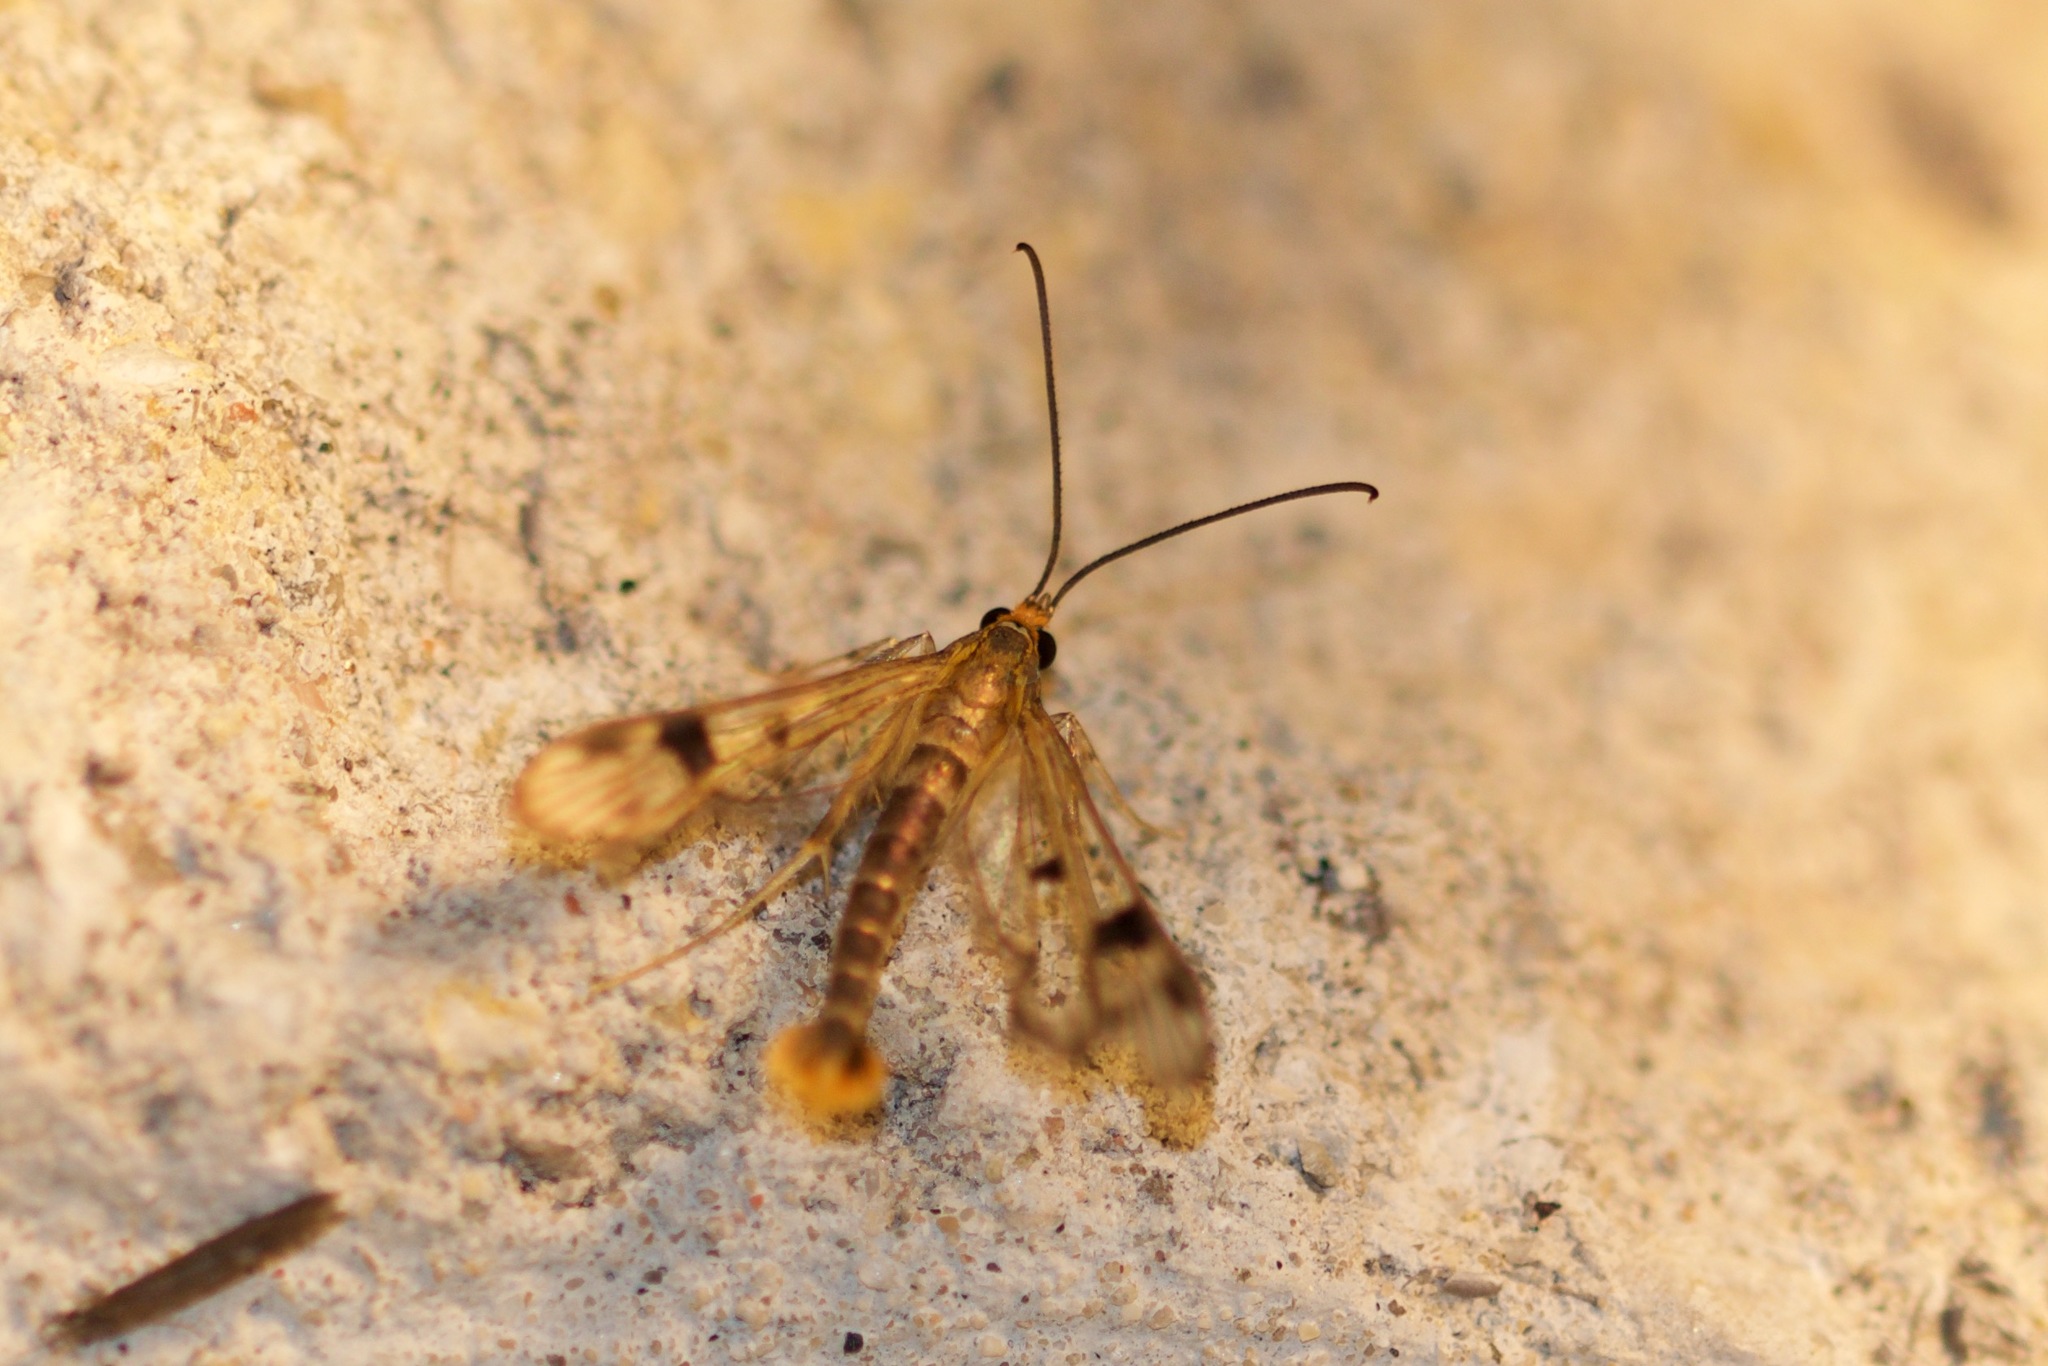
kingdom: Animalia
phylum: Arthropoda
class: Insecta
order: Lepidoptera
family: Sesiidae
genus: Synanthedon
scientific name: Synanthedon acerni
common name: Maple callus borer moth
